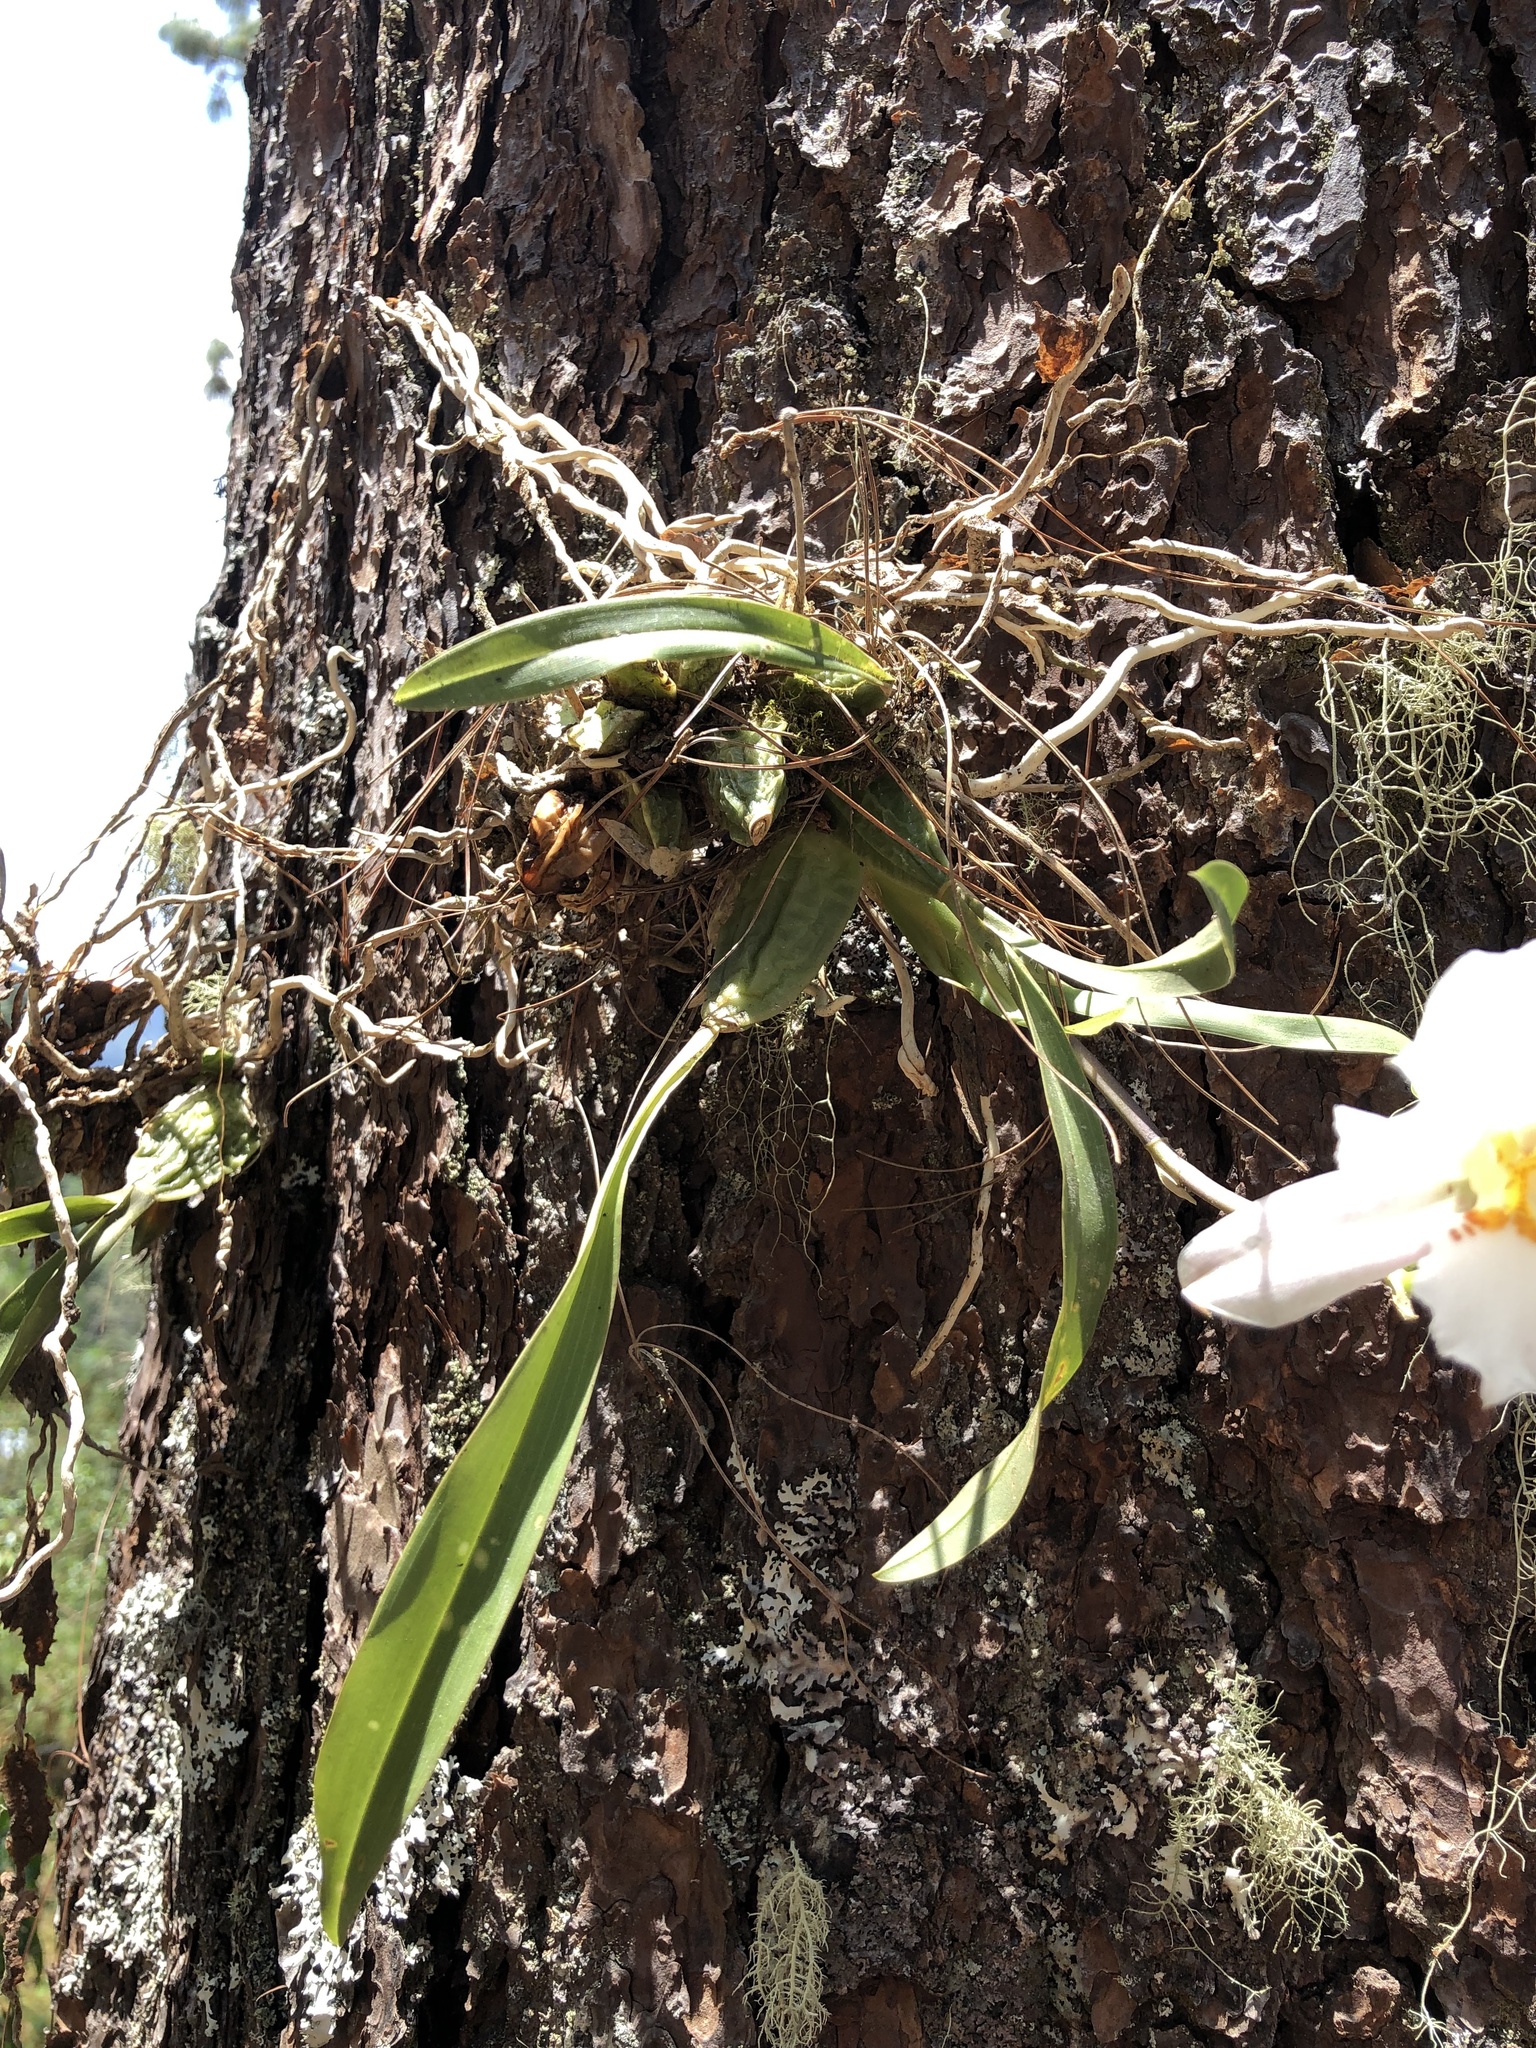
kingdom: Plantae
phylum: Tracheophyta
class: Liliopsida
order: Asparagales
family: Orchidaceae
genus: Rhynchostele
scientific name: Rhynchostele candidula
